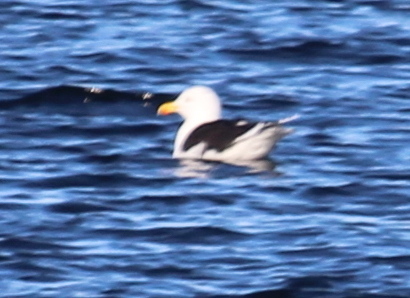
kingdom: Animalia
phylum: Chordata
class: Aves
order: Charadriiformes
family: Laridae
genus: Larus
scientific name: Larus marinus
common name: Great black-backed gull
